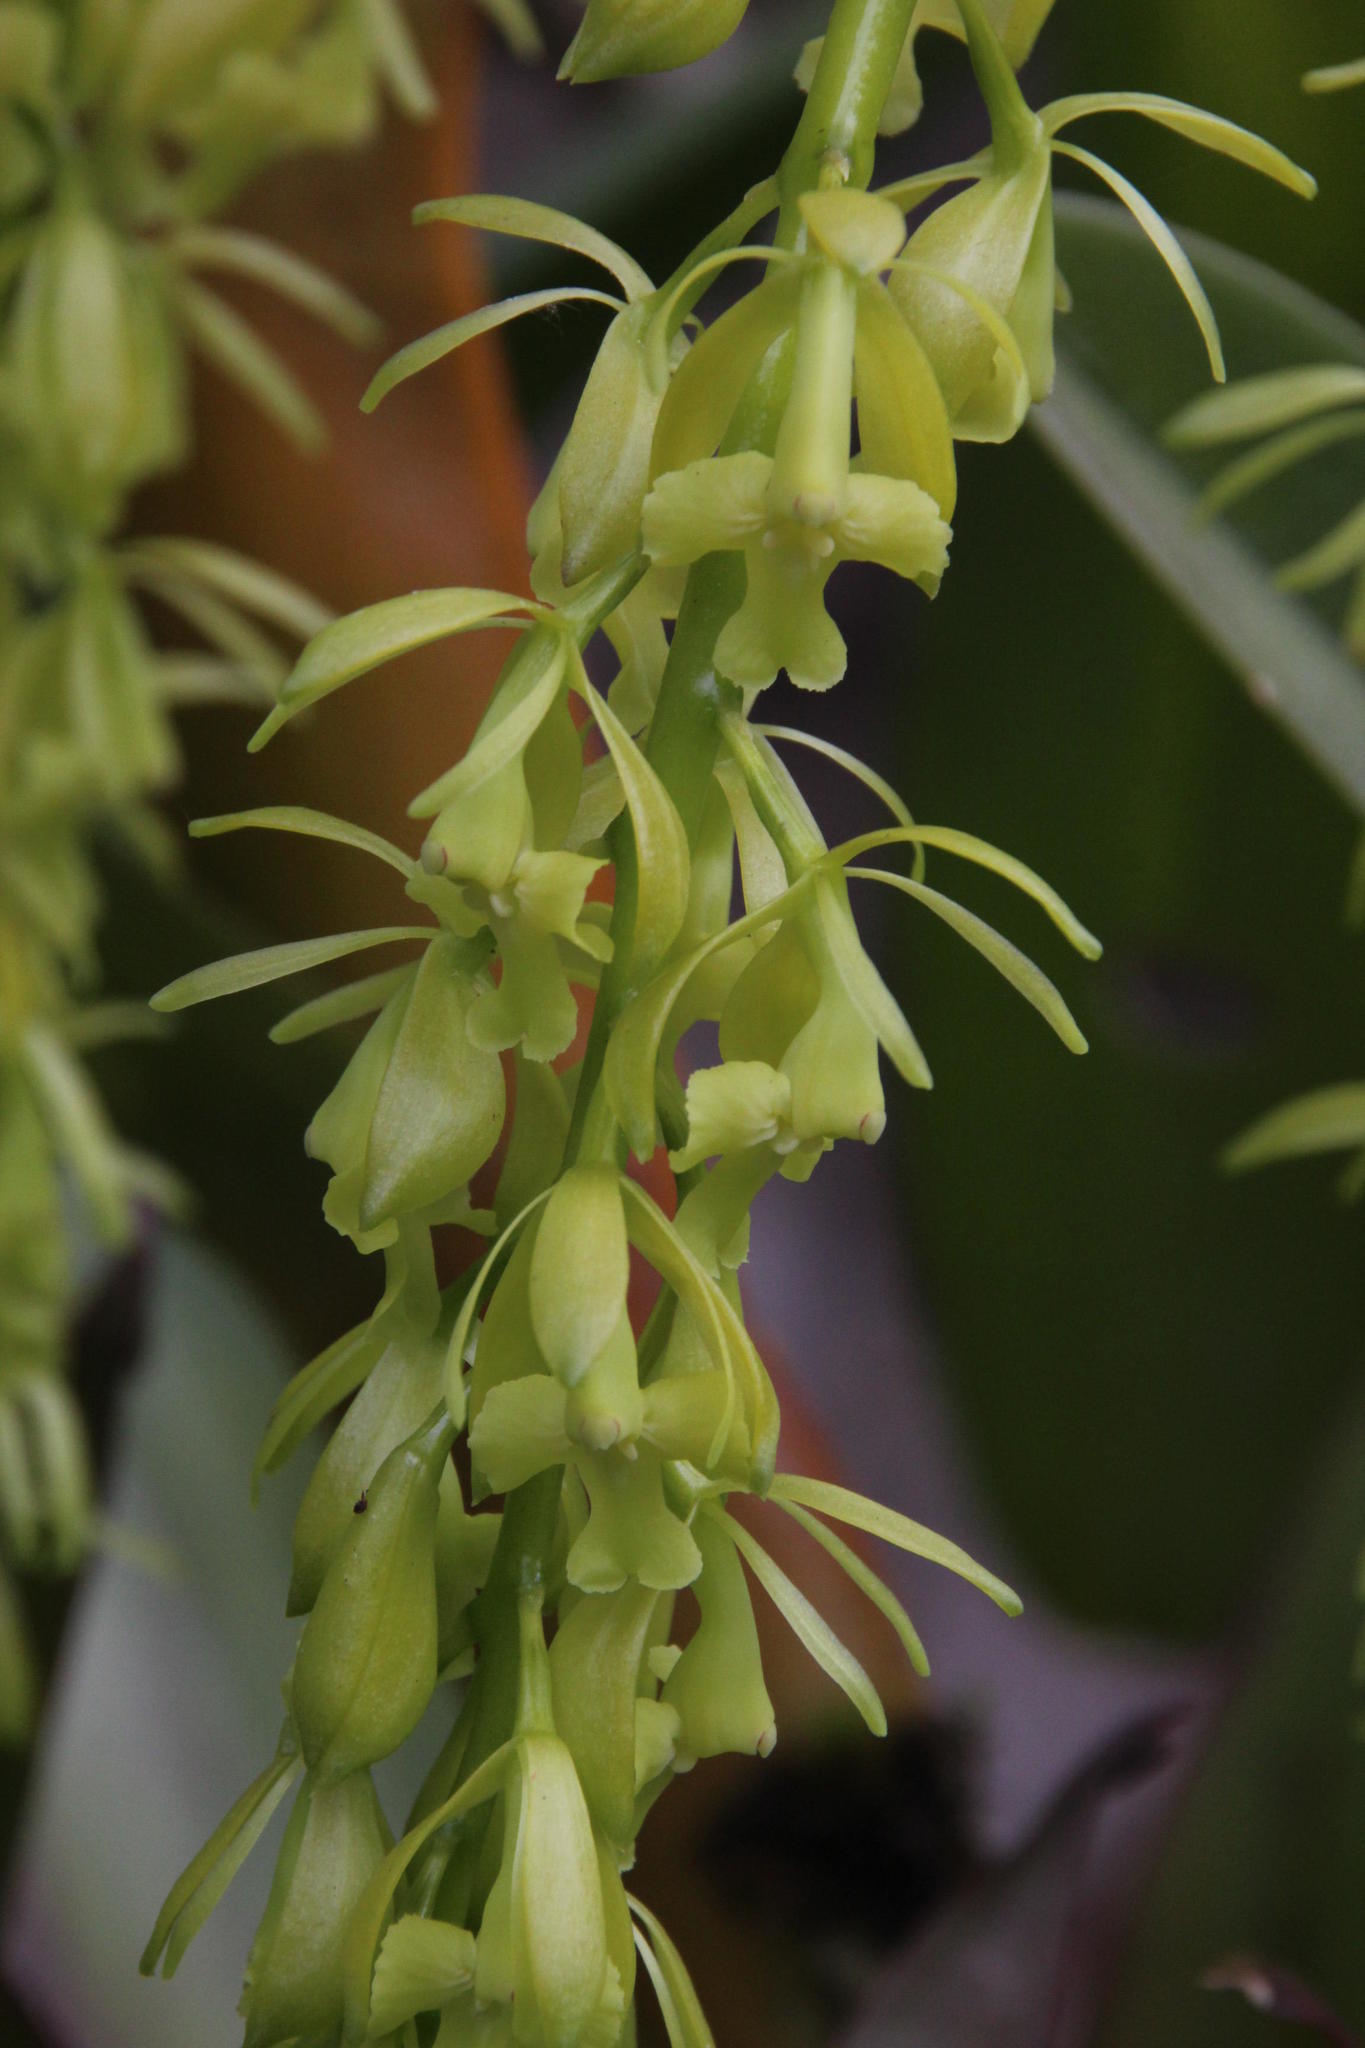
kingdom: Plantae
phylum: Tracheophyta
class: Liliopsida
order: Asparagales
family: Orchidaceae
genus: Epidendrum
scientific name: Epidendrum excisum
